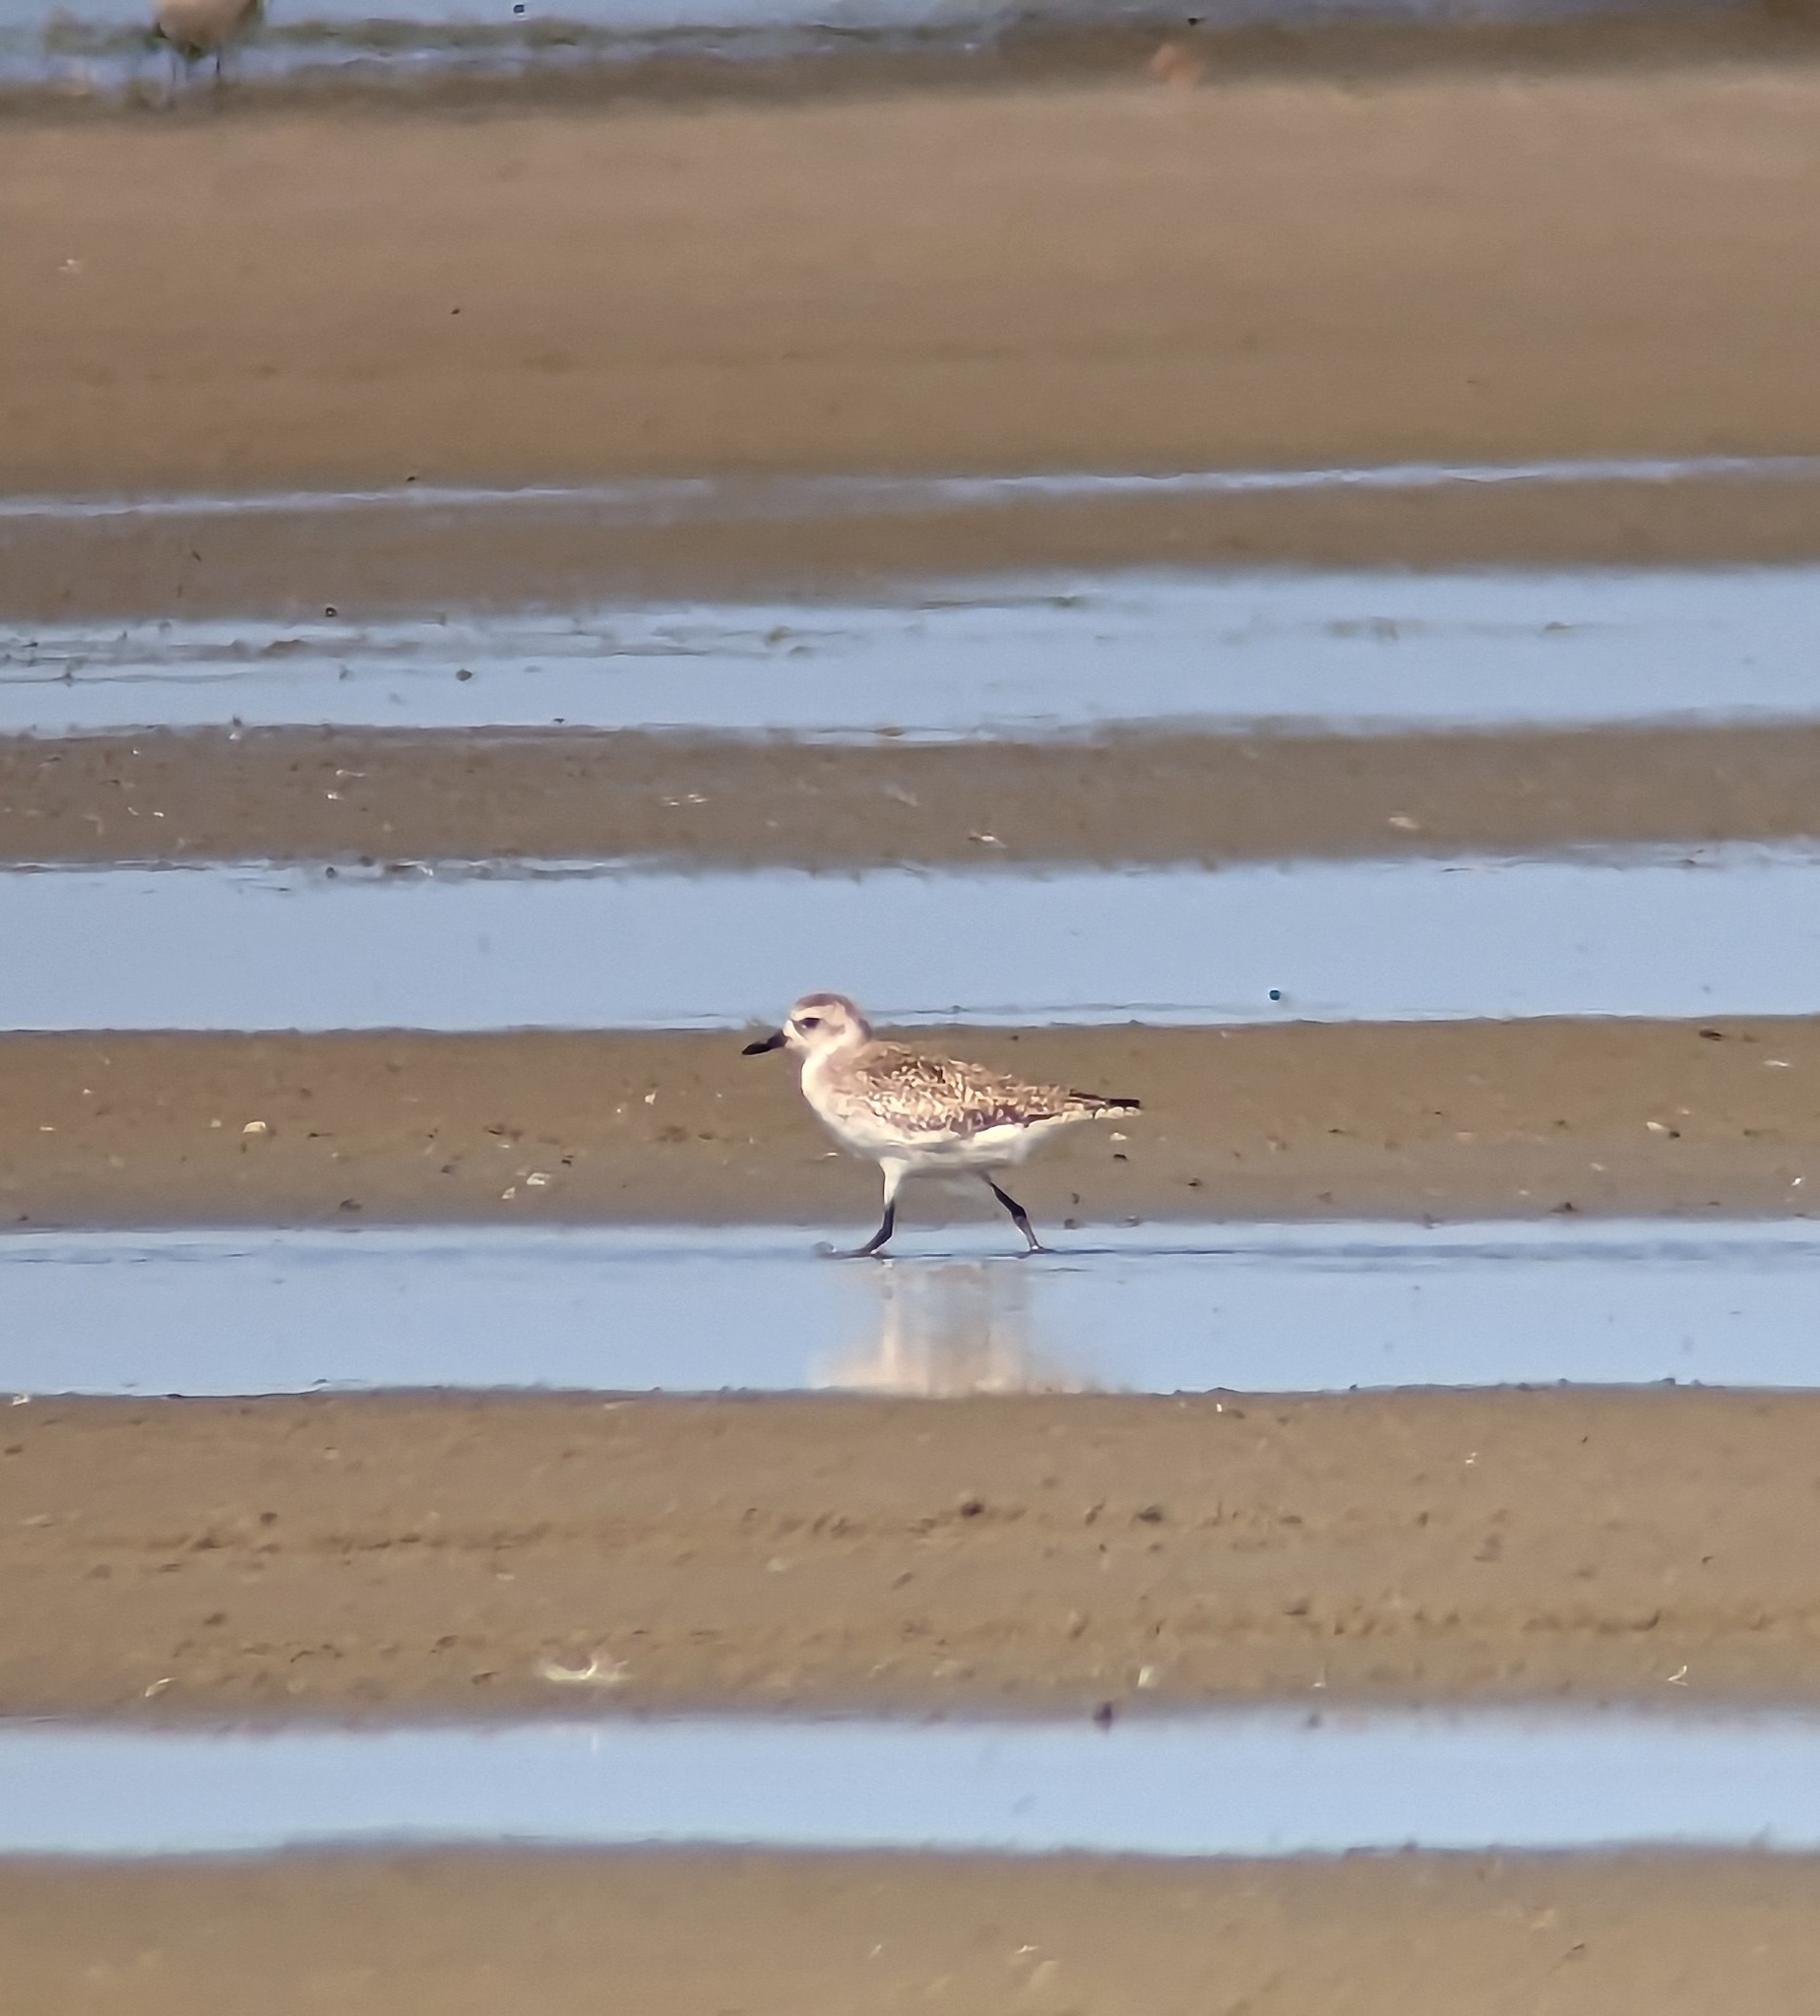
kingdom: Animalia
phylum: Chordata
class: Aves
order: Charadriiformes
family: Charadriidae
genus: Pluvialis
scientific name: Pluvialis squatarola
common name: Grey plover
